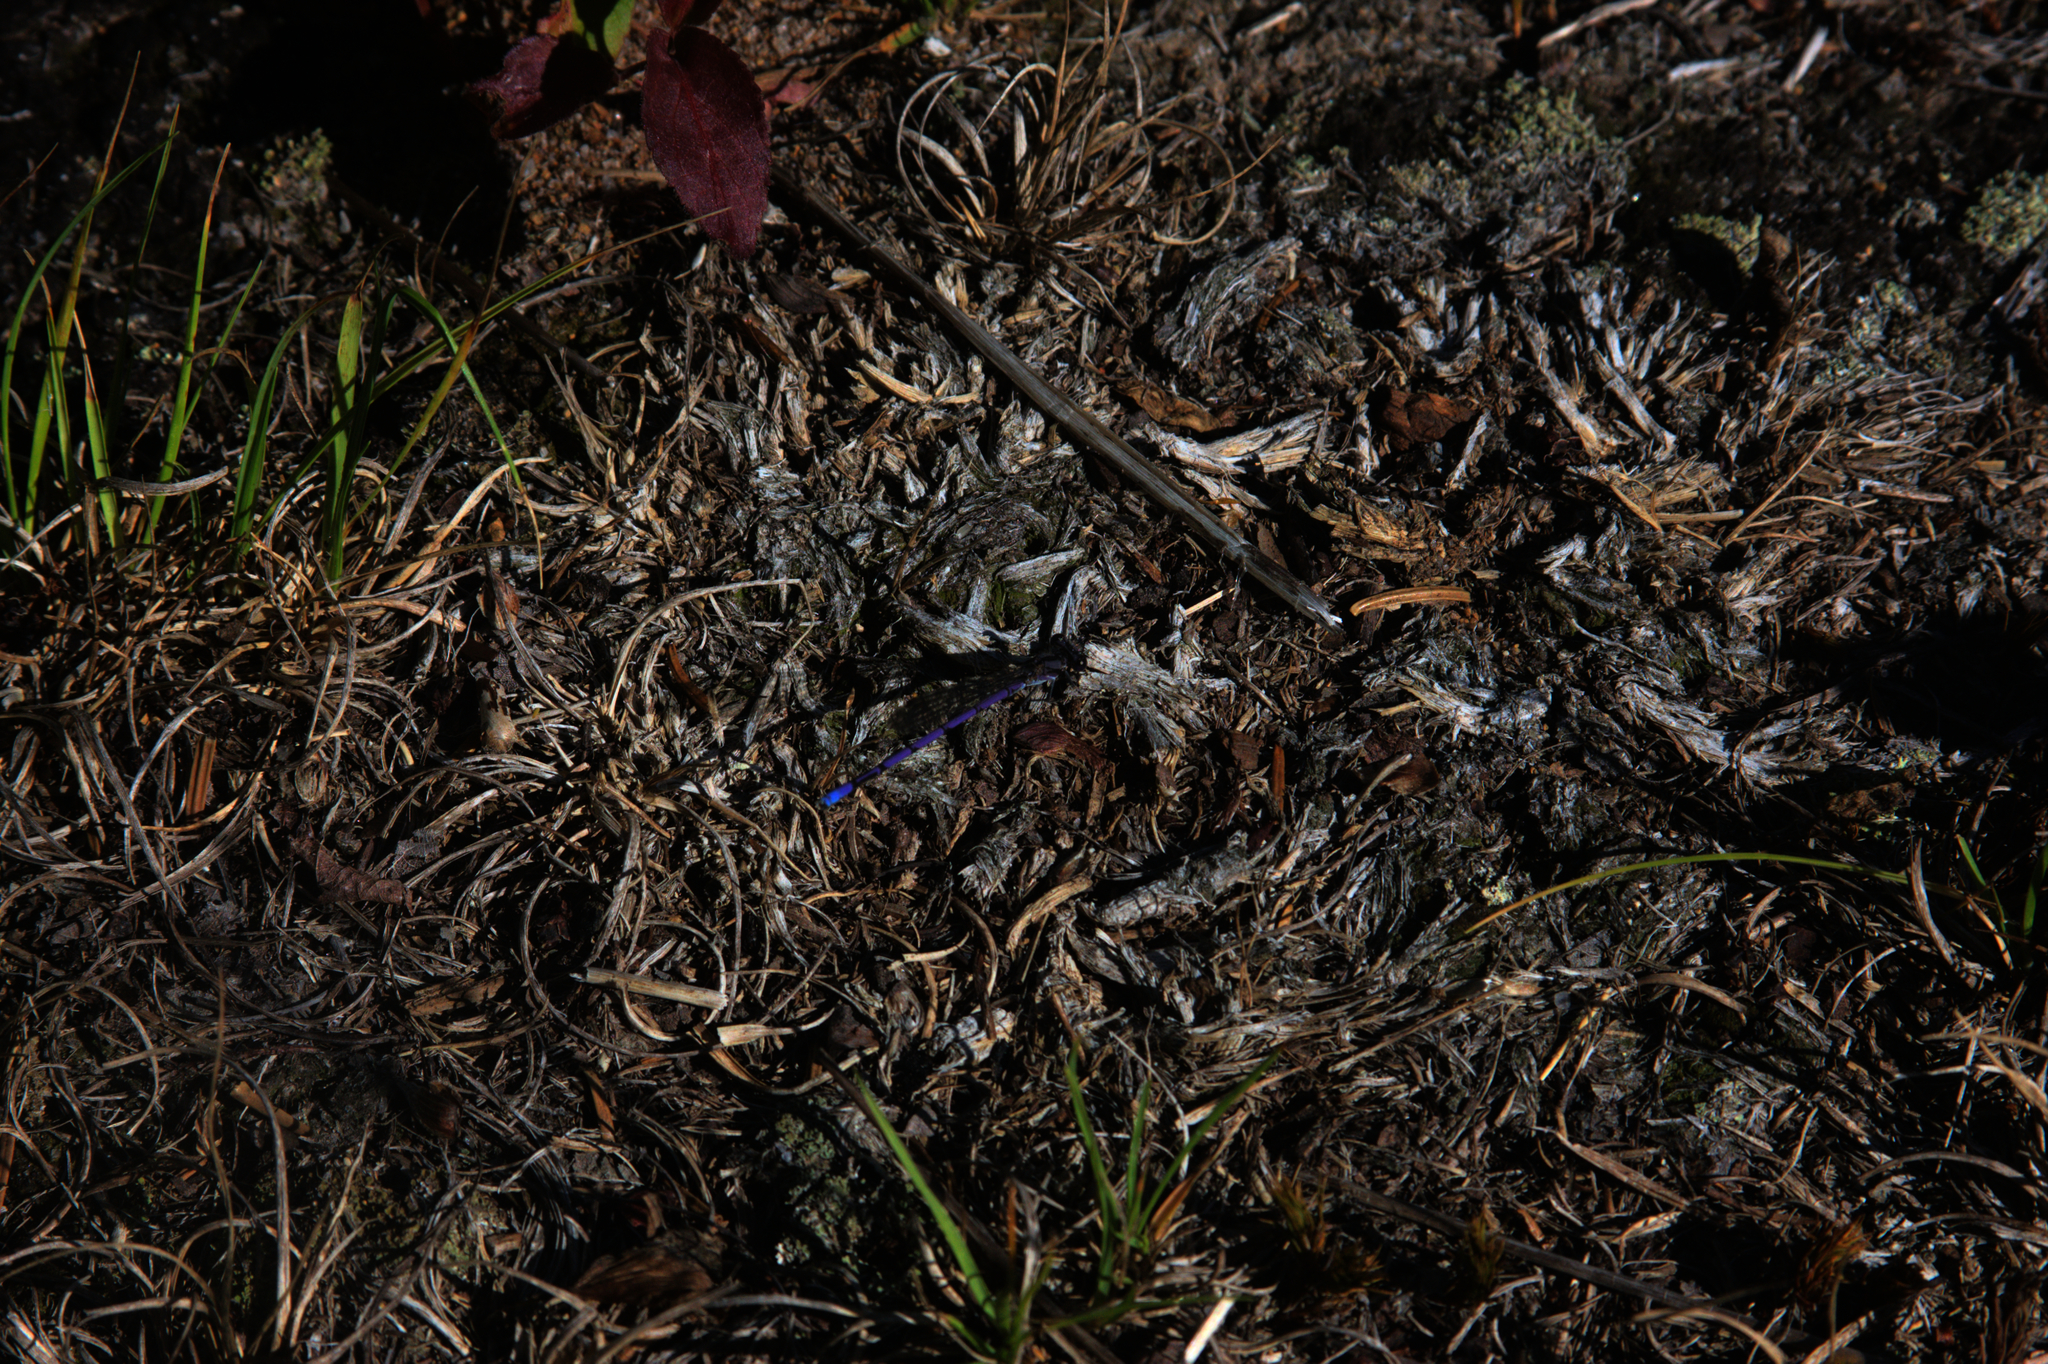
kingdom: Animalia
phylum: Arthropoda
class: Insecta
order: Odonata
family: Coenagrionidae
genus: Argia
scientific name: Argia fumipennis
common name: Variable dancer
